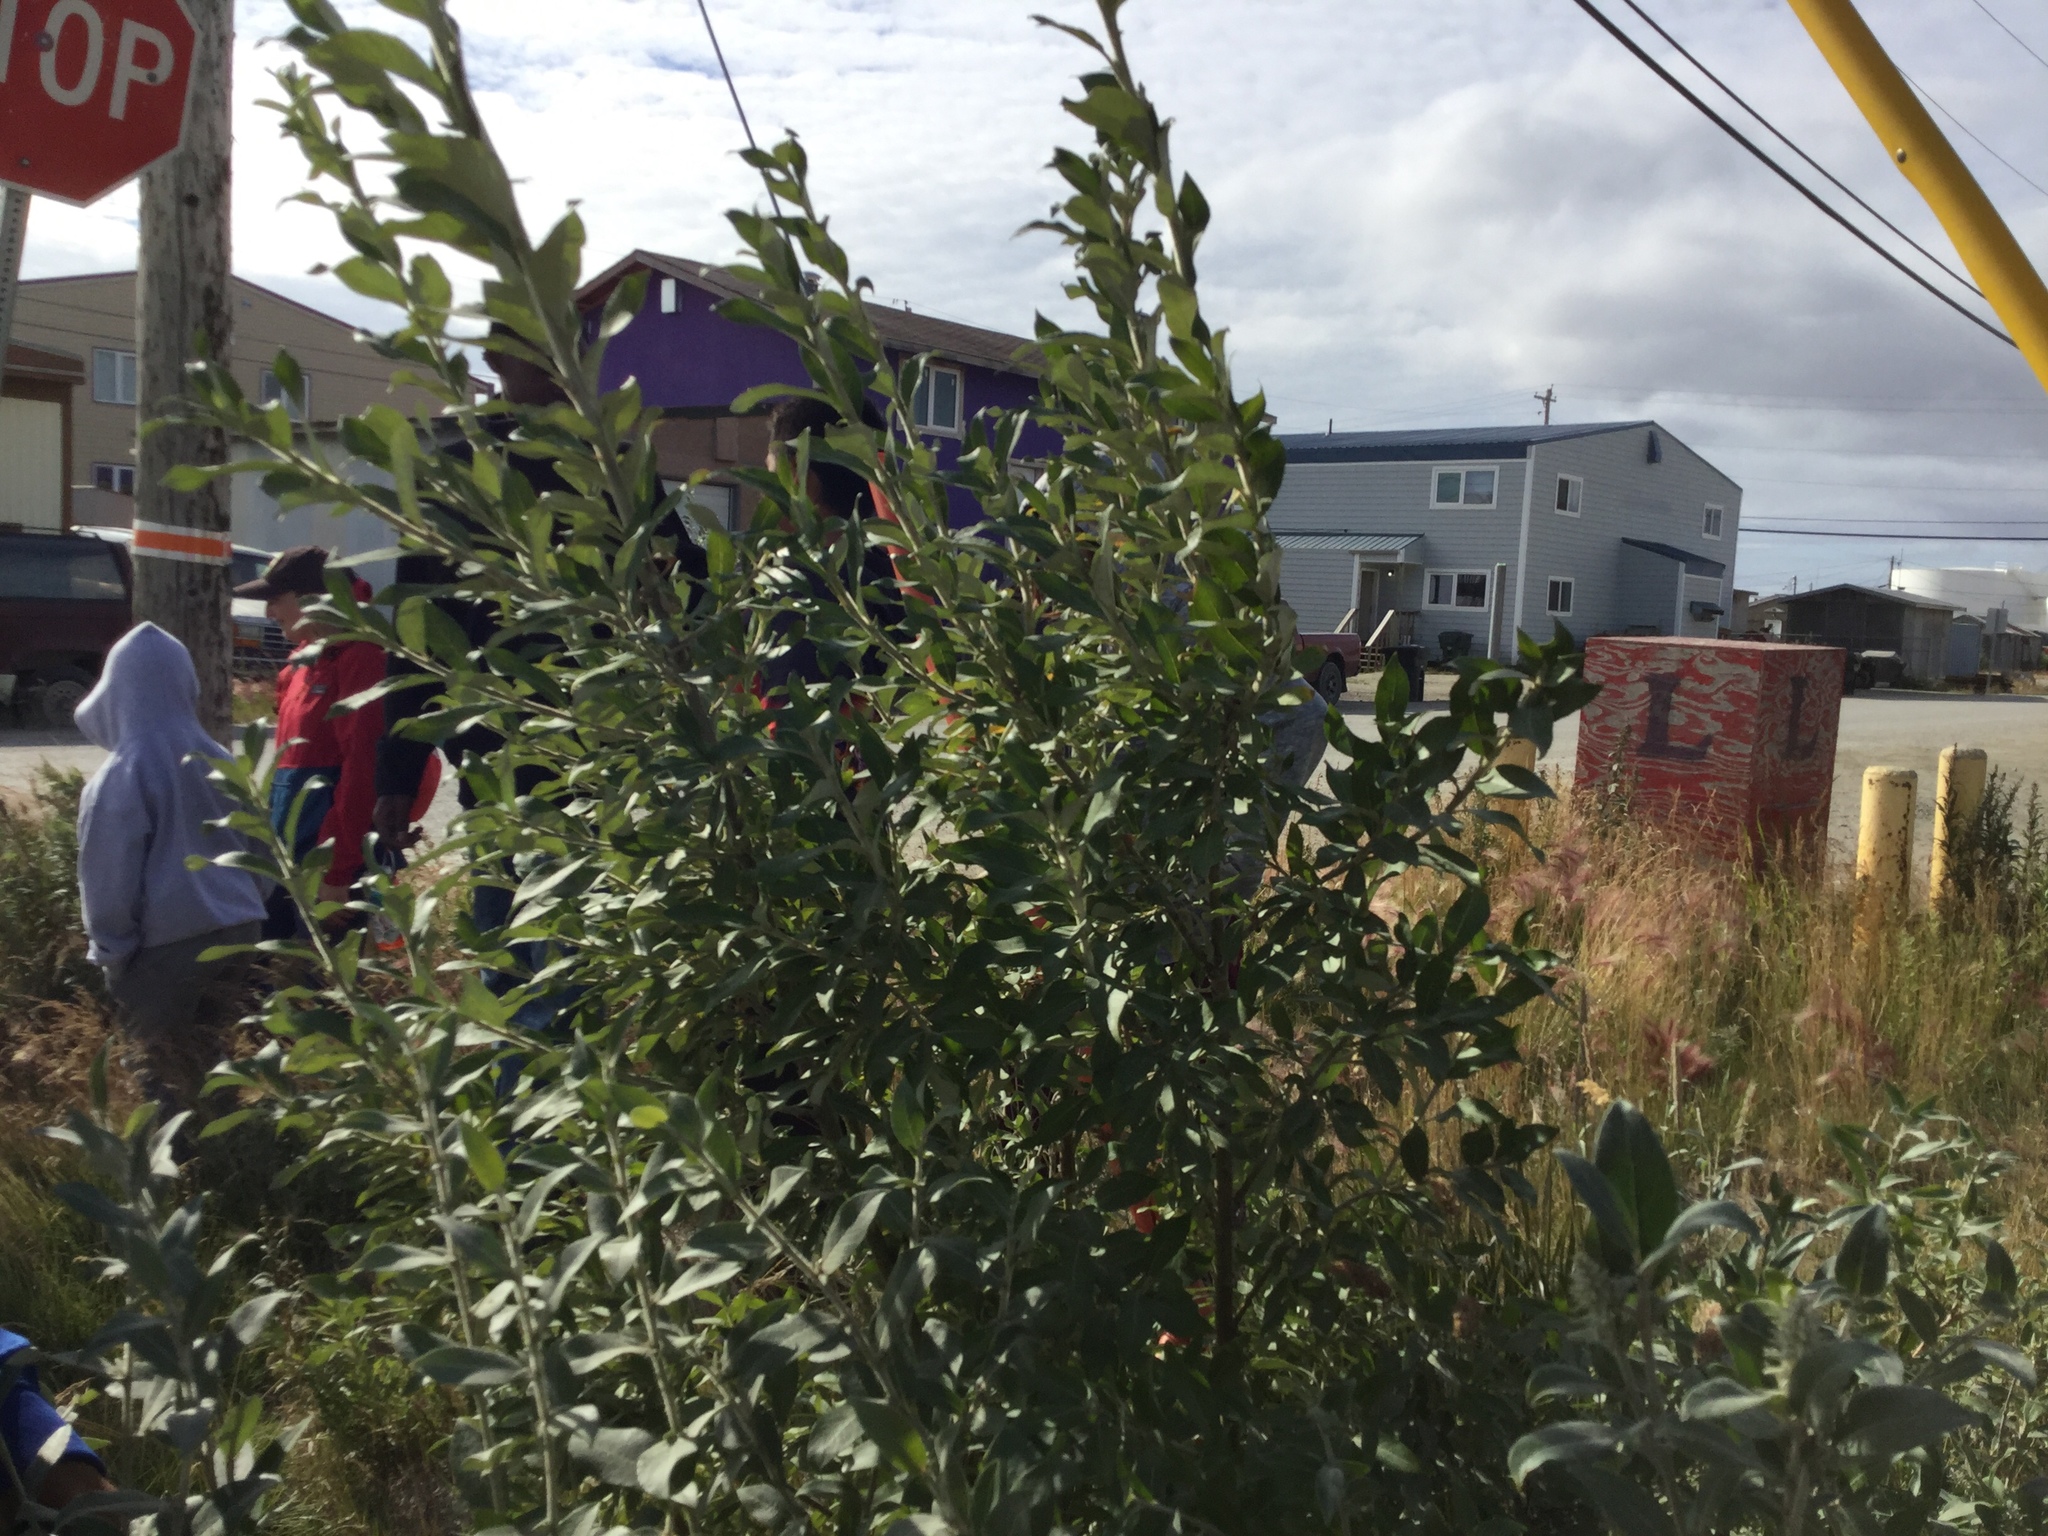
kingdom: Plantae
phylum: Tracheophyta
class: Liliopsida
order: Poales
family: Poaceae
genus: Hordeum
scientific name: Hordeum jubatum
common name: Foxtail barley
